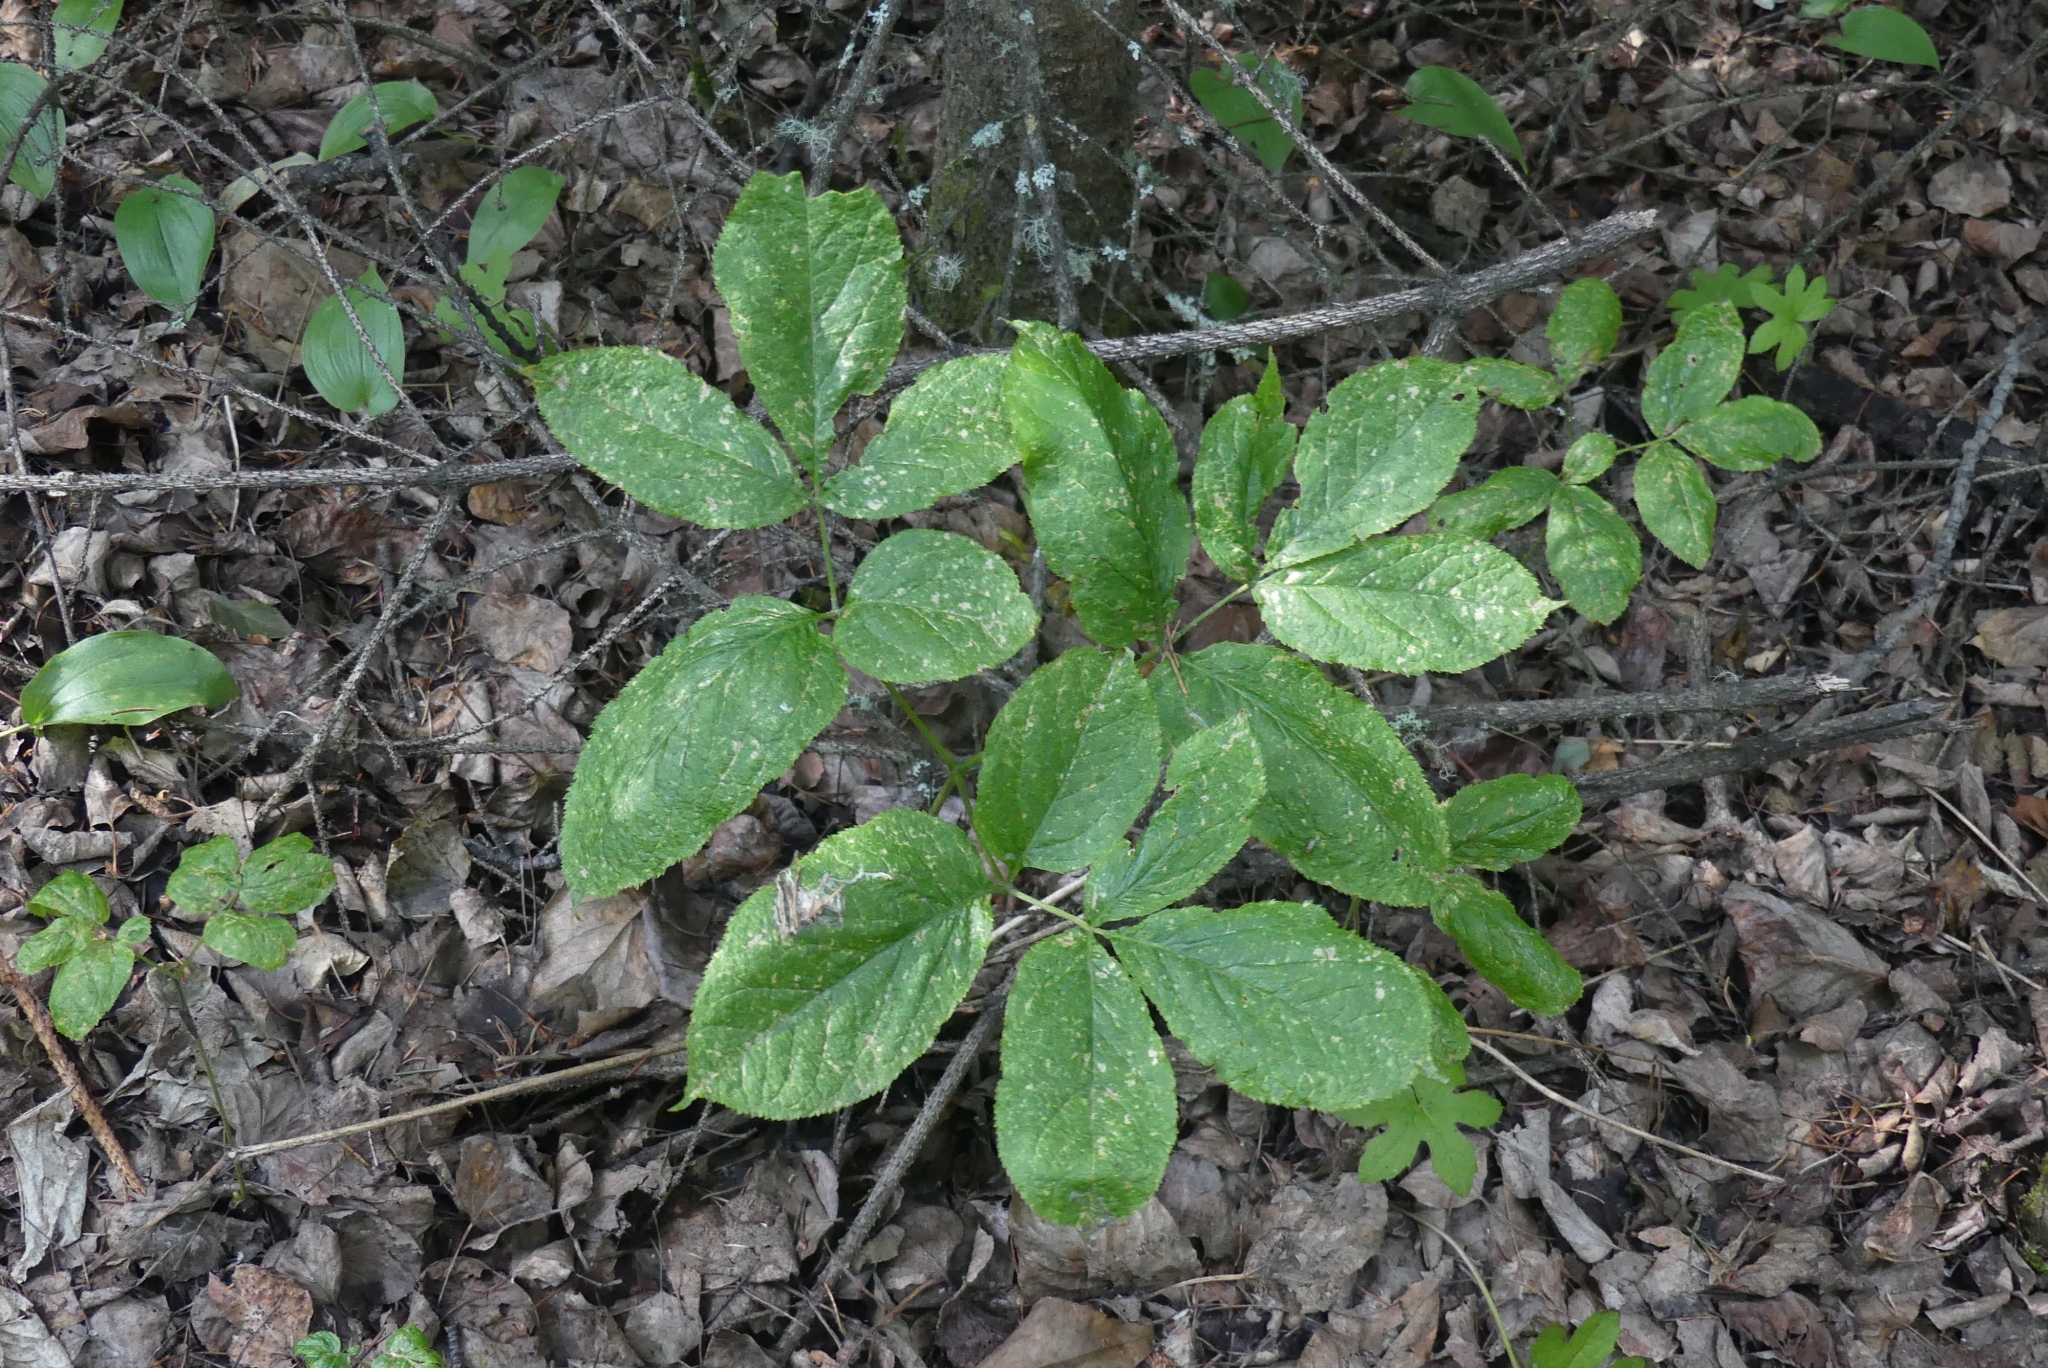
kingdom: Plantae
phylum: Tracheophyta
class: Magnoliopsida
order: Apiales
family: Araliaceae
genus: Aralia
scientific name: Aralia nudicaulis
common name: Wild sarsaparilla
